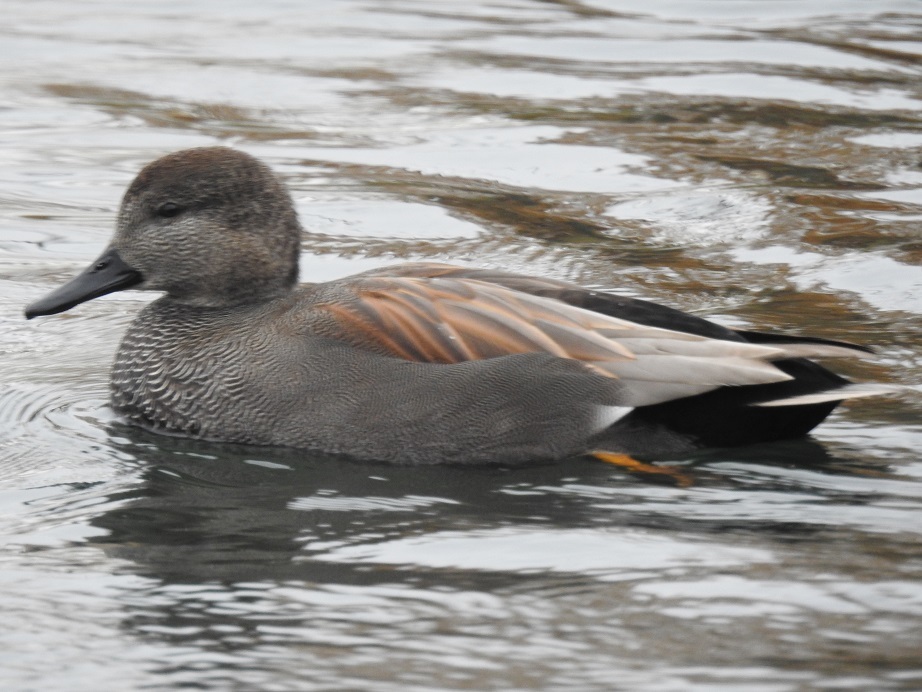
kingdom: Animalia
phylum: Chordata
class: Aves
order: Anseriformes
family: Anatidae
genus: Mareca
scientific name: Mareca strepera
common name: Gadwall
